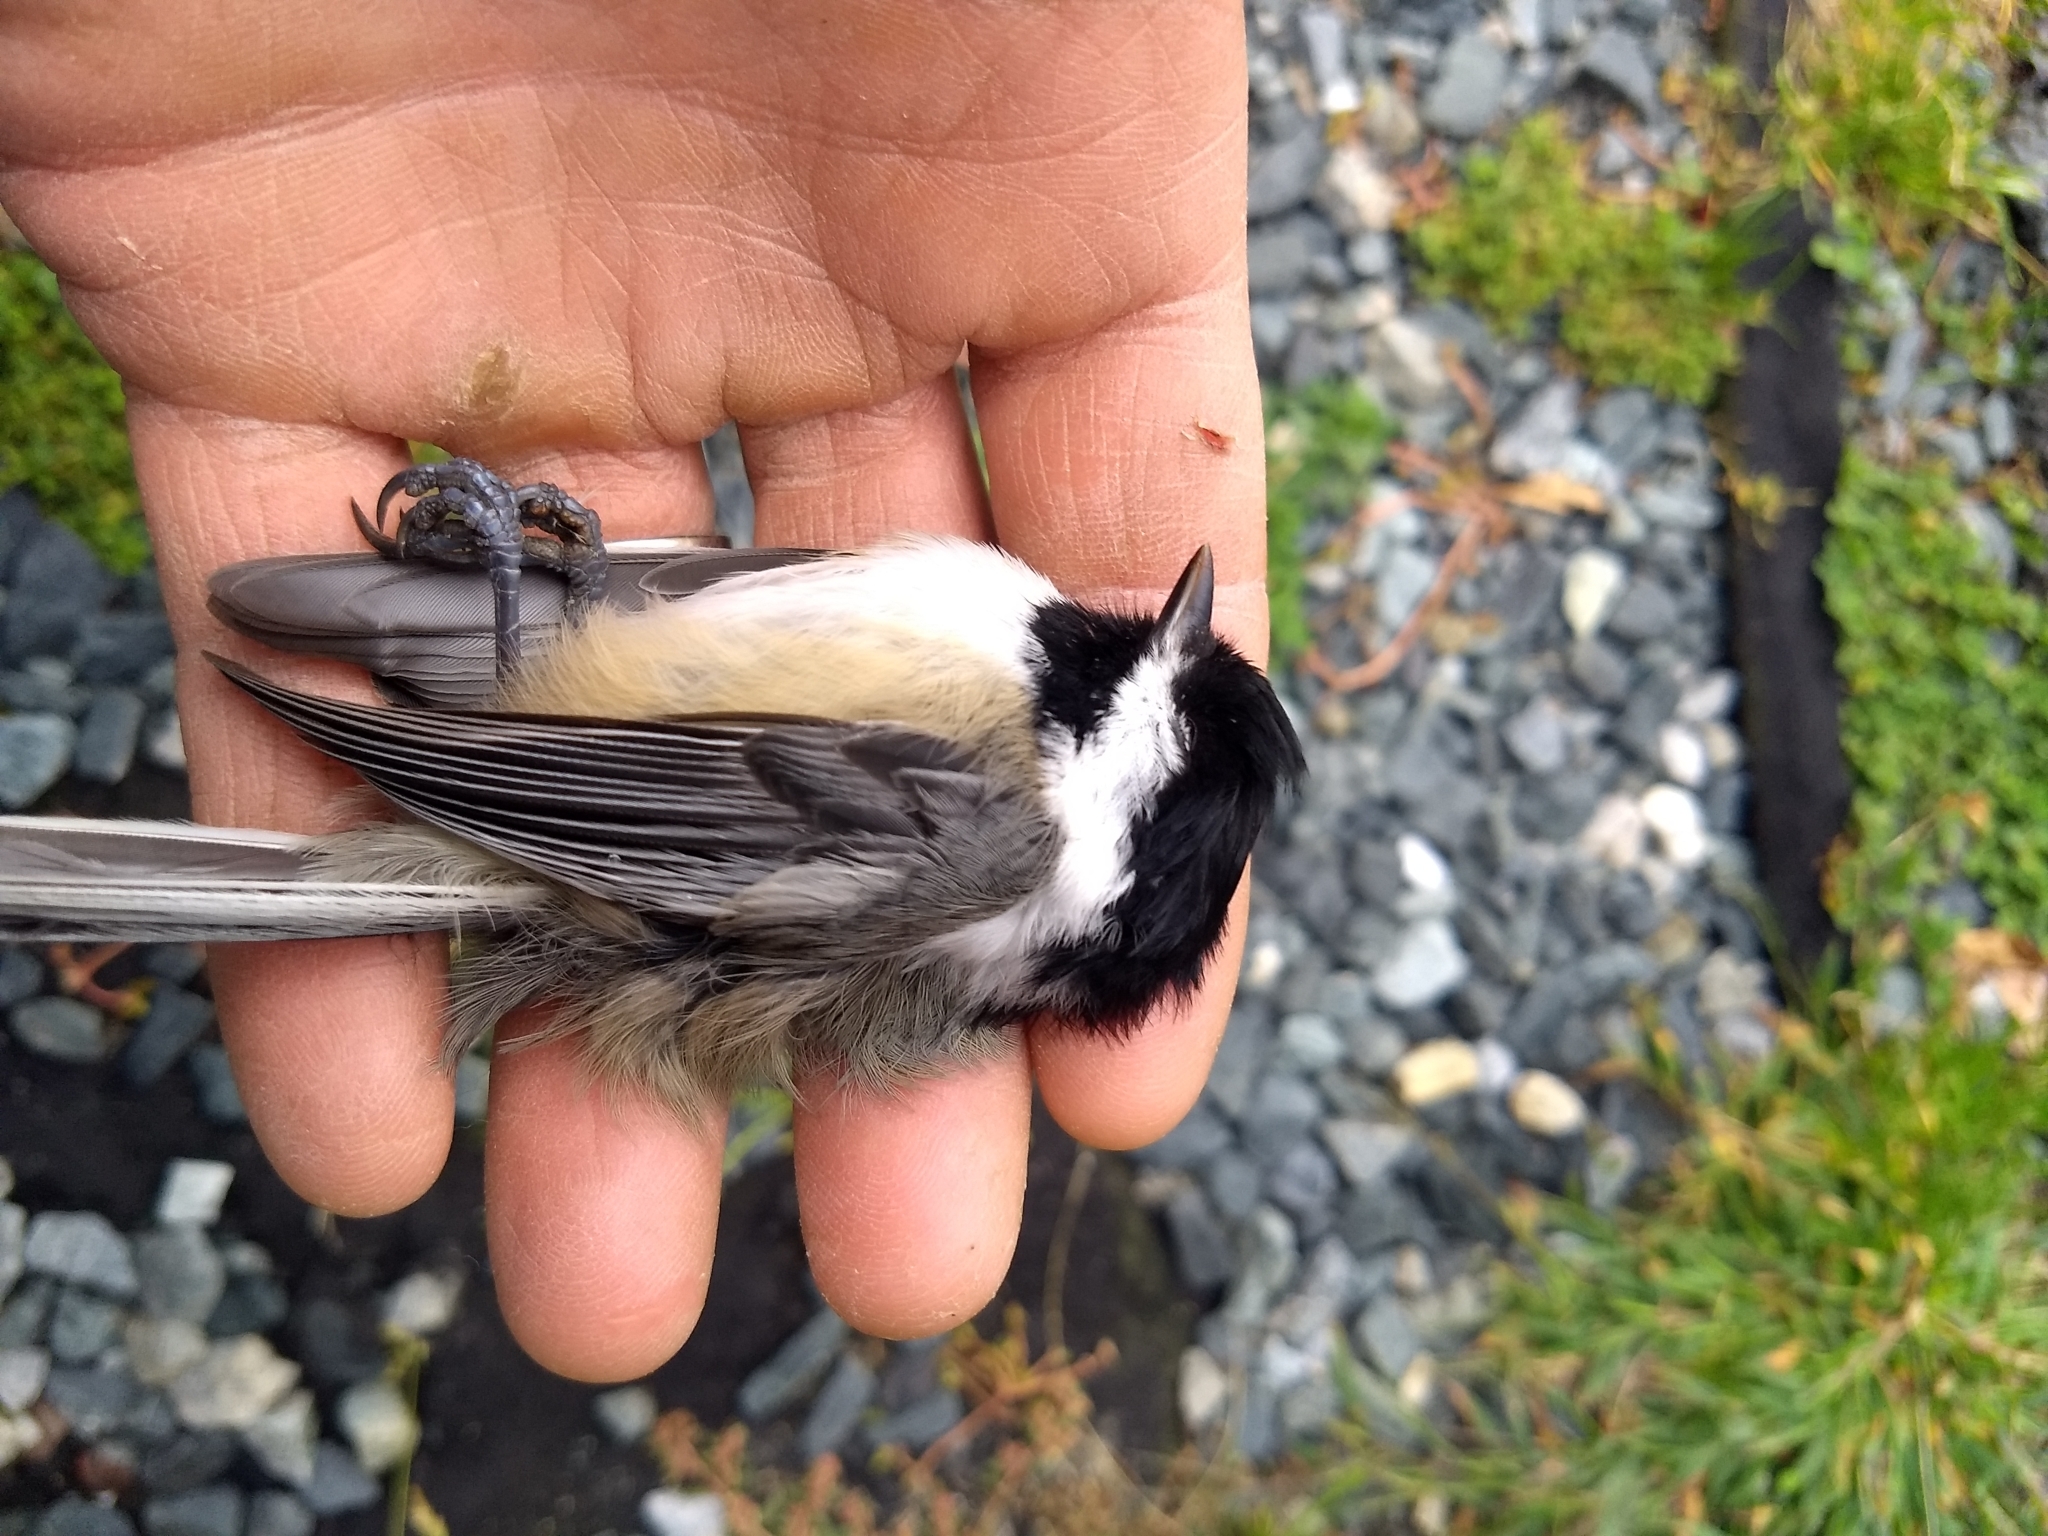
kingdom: Animalia
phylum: Chordata
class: Aves
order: Passeriformes
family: Paridae
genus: Poecile
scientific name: Poecile atricapillus
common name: Black-capped chickadee
